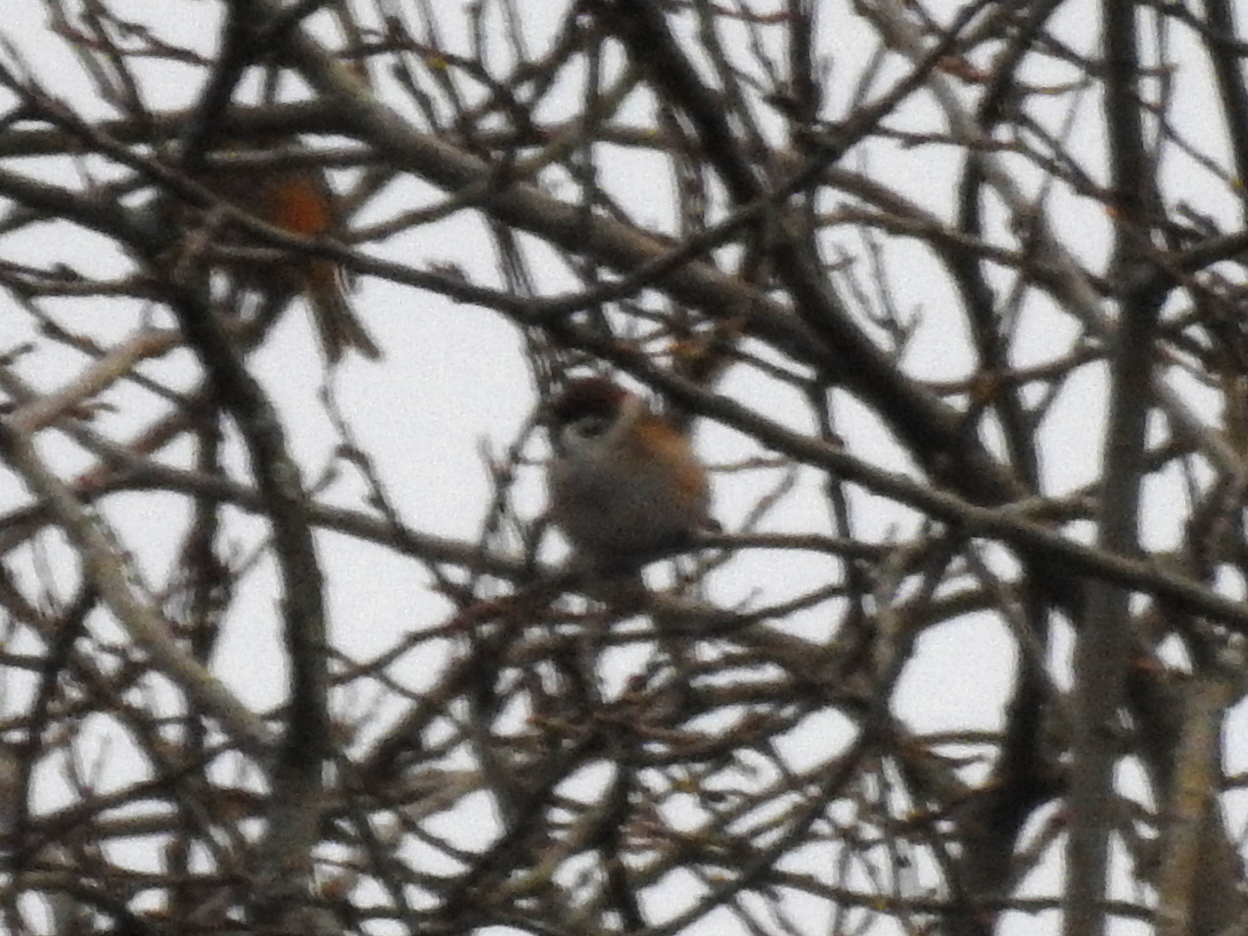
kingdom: Animalia
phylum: Chordata
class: Aves
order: Passeriformes
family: Passeridae
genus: Passer
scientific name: Passer montanus
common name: Eurasian tree sparrow
